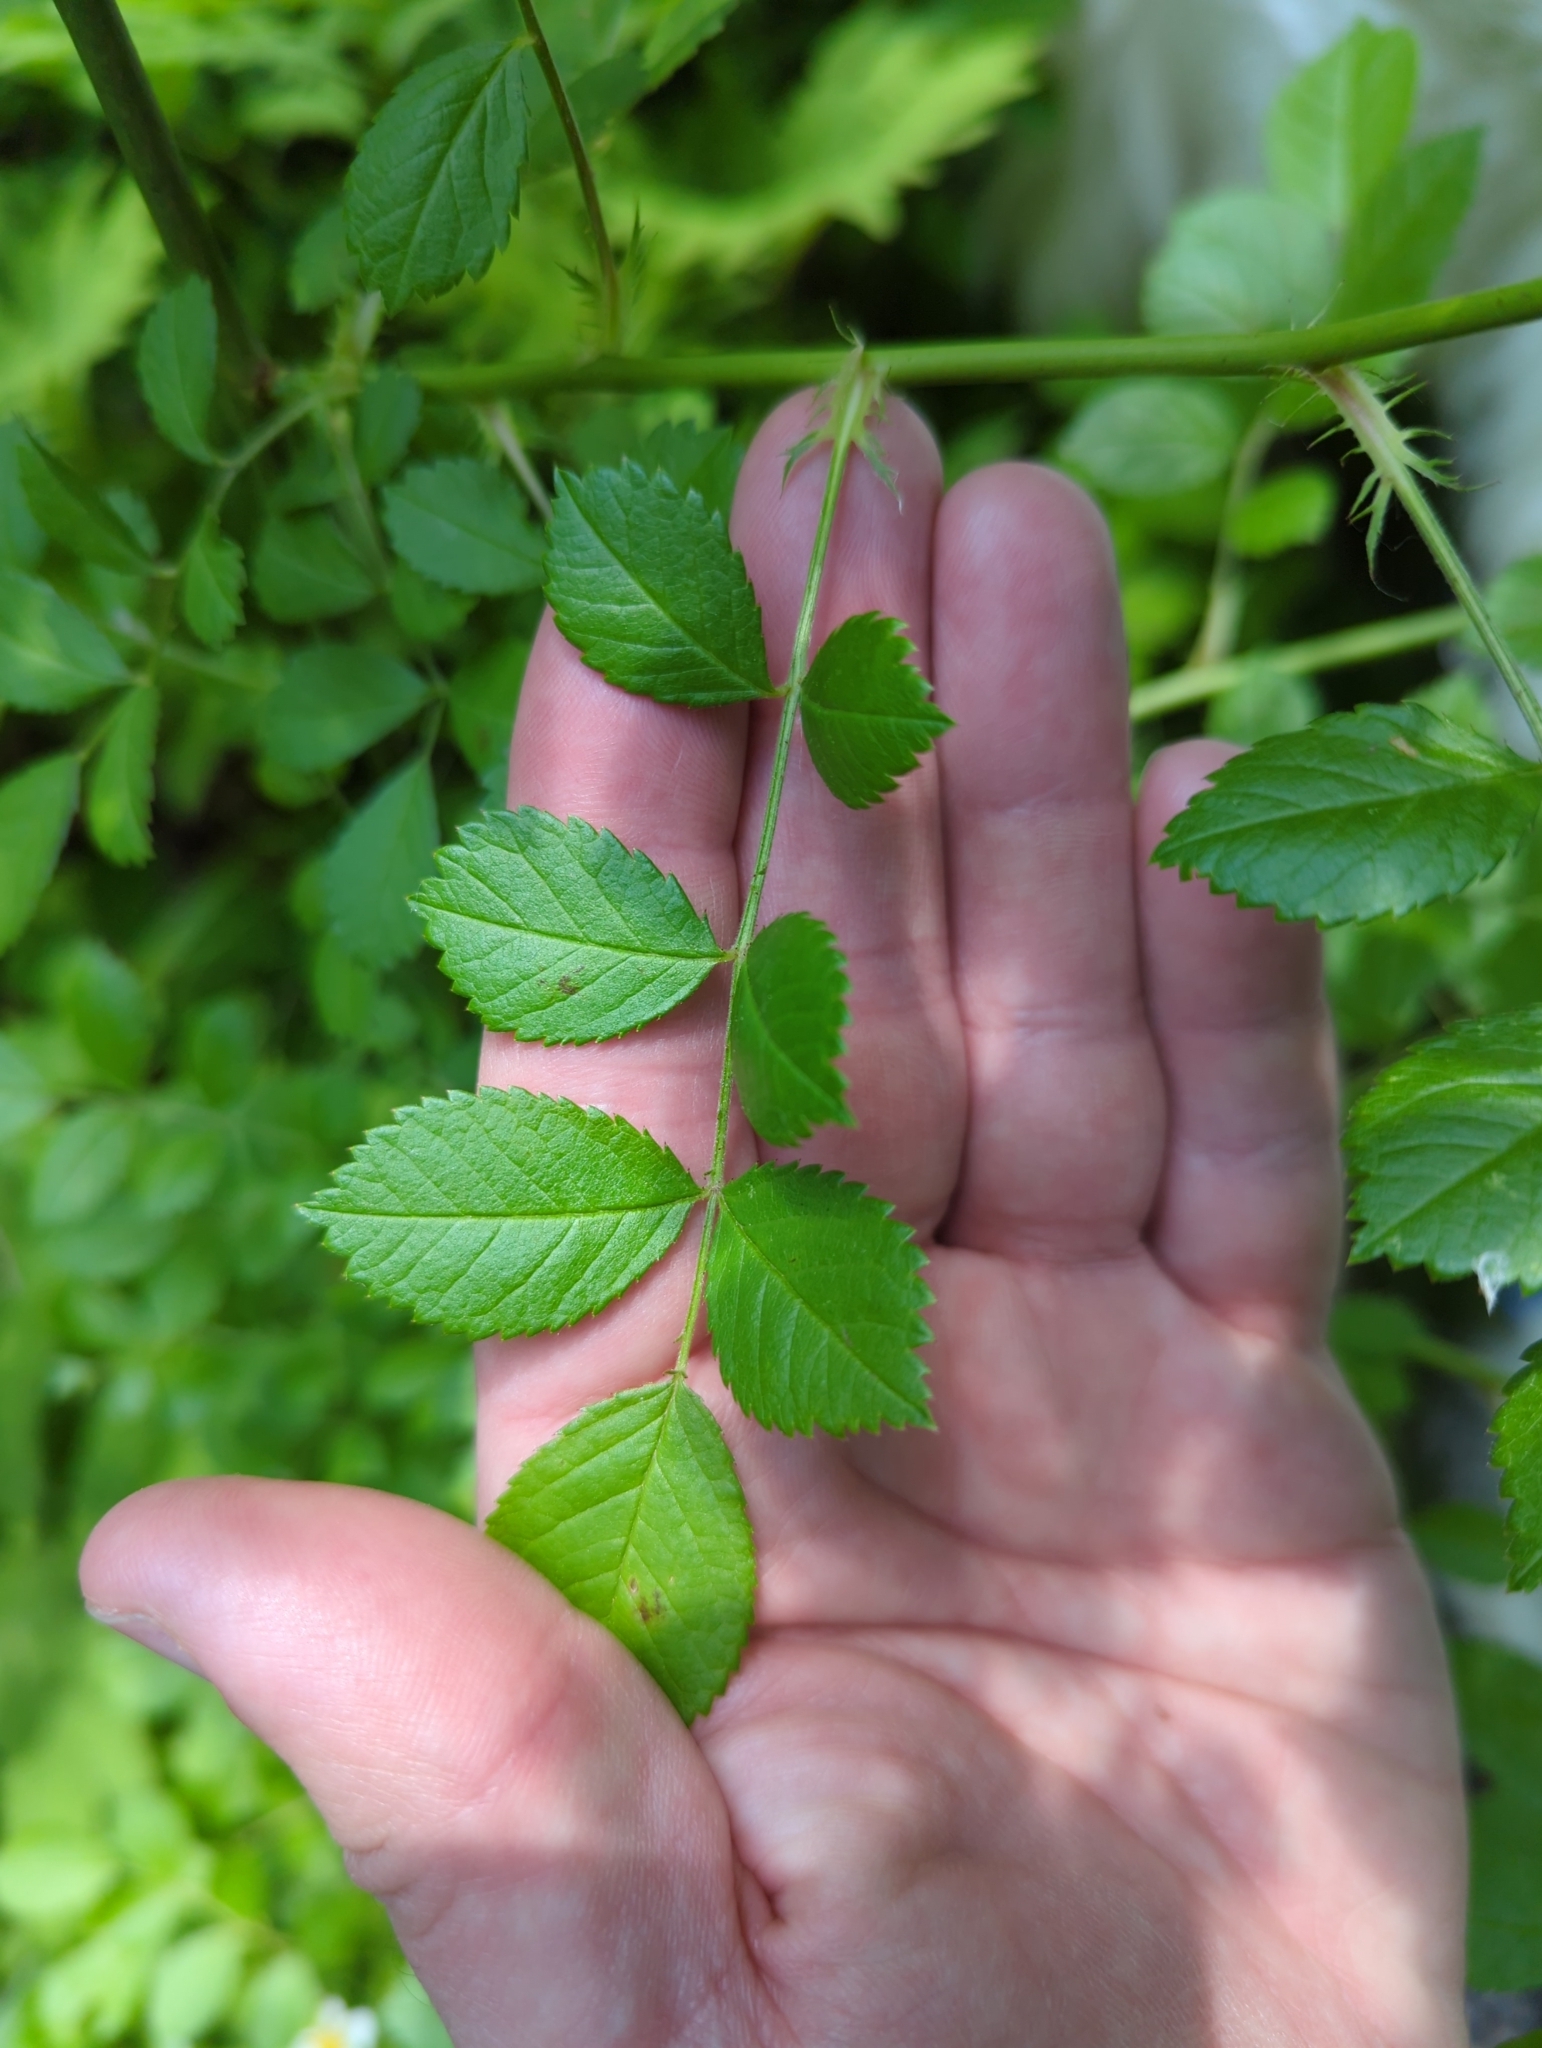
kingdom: Plantae
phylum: Tracheophyta
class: Magnoliopsida
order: Rosales
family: Rosaceae
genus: Rosa
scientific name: Rosa multiflora
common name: Multiflora rose
